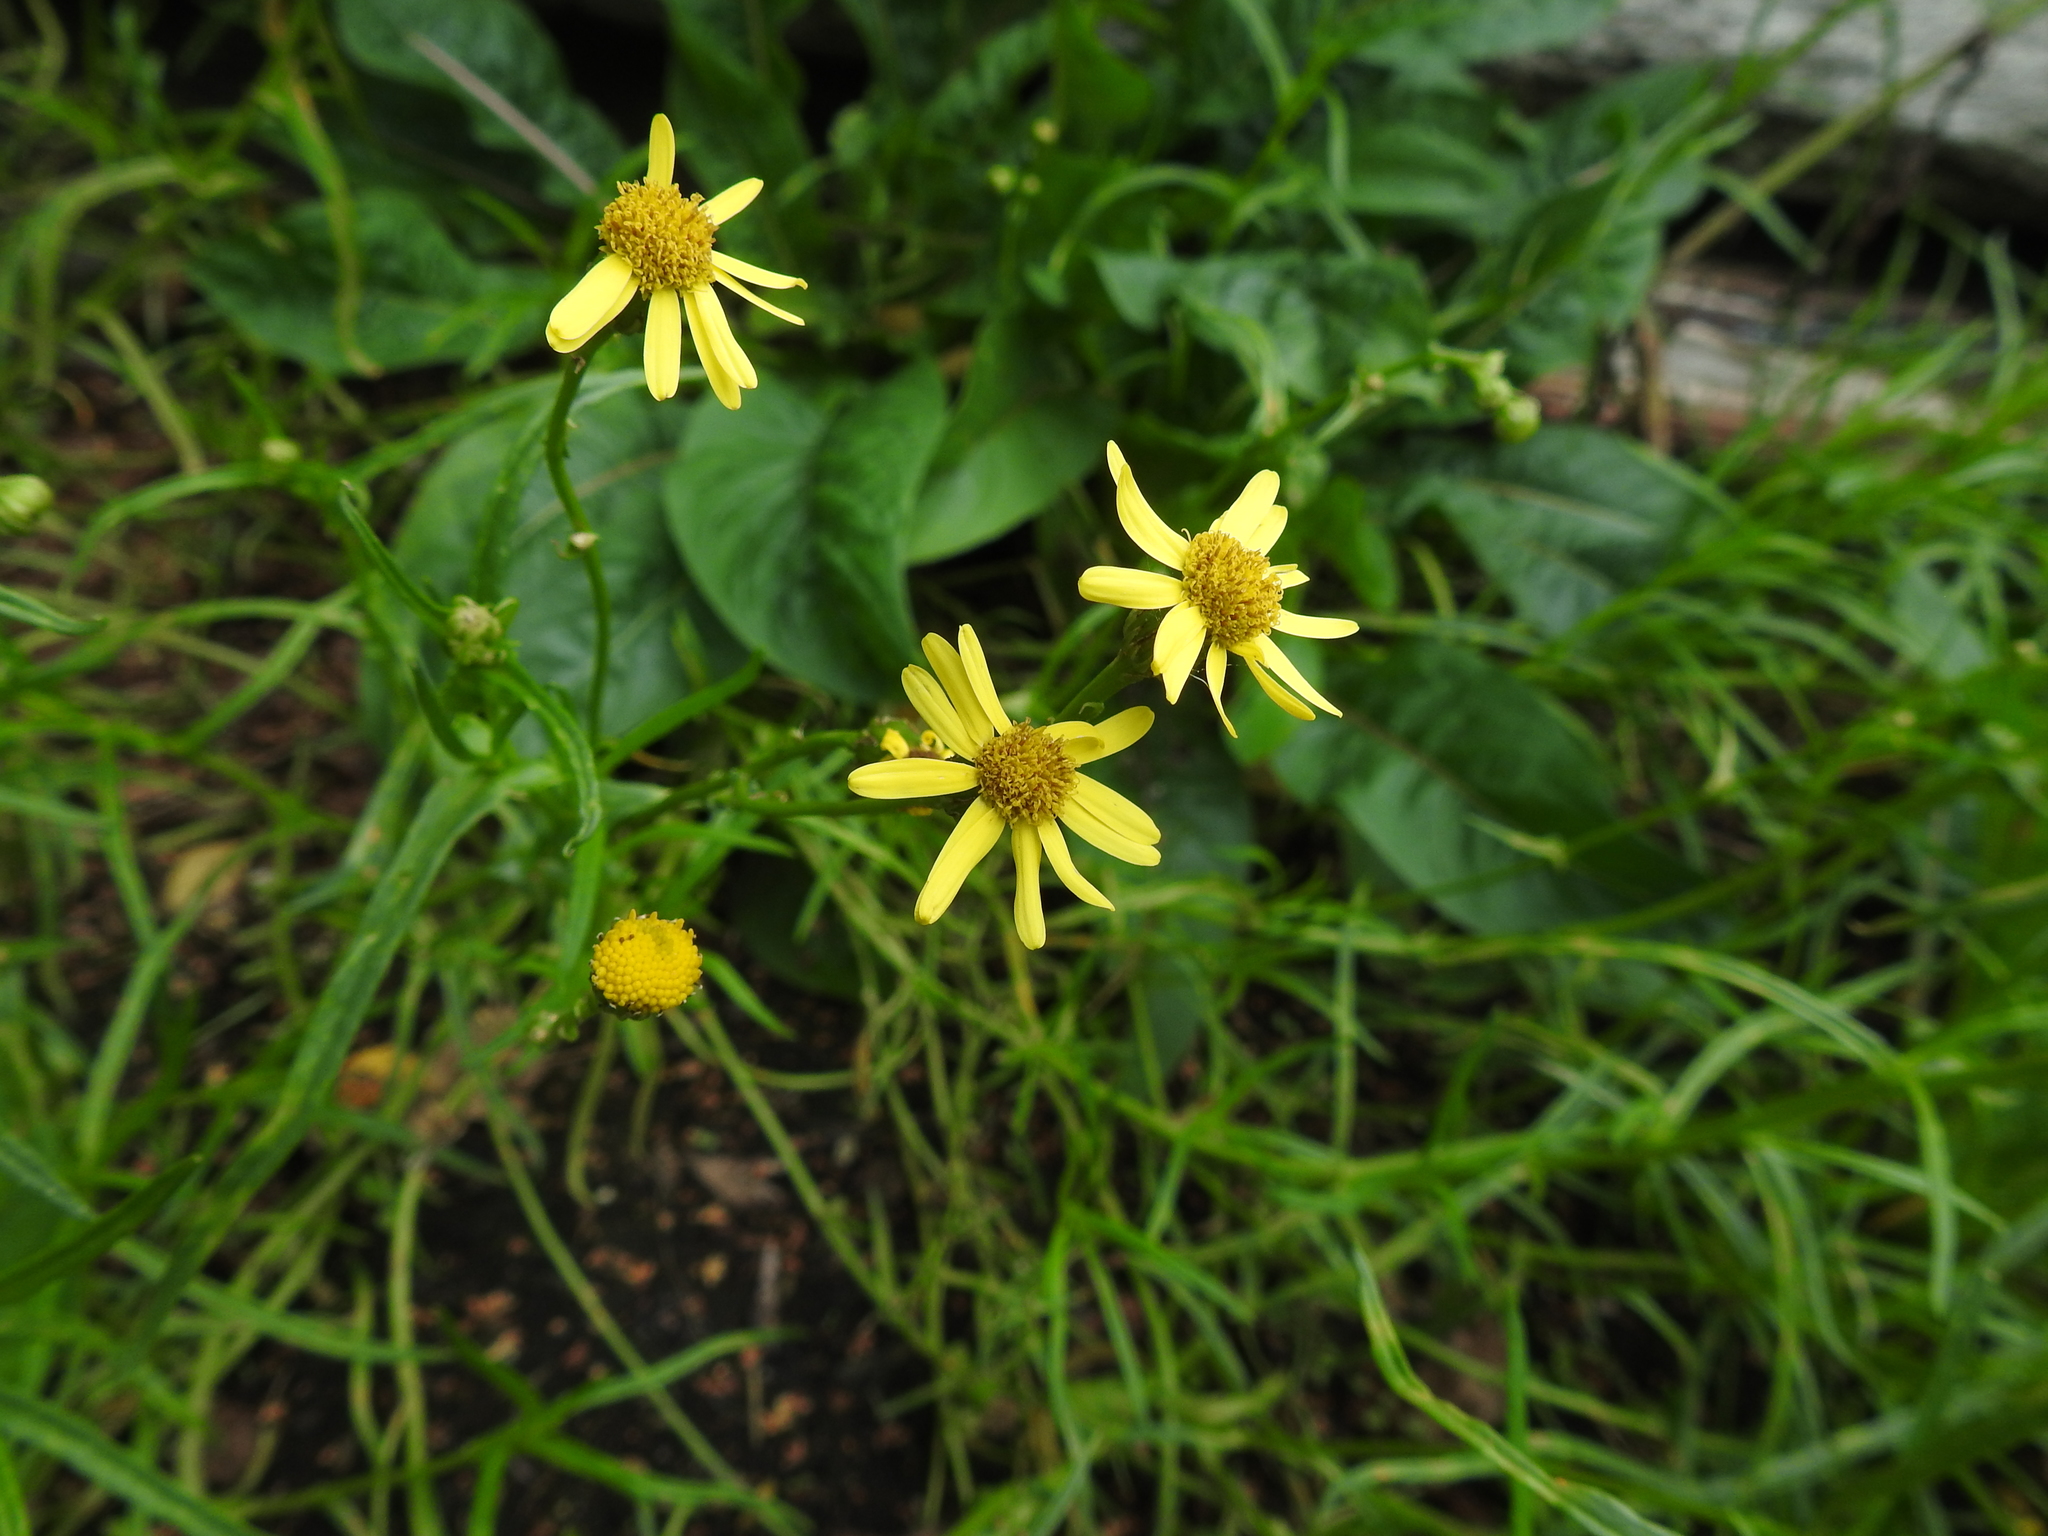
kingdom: Plantae
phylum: Tracheophyta
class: Magnoliopsida
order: Asterales
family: Asteraceae
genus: Senecio
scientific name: Senecio inaequidens
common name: Narrow-leaved ragwort
